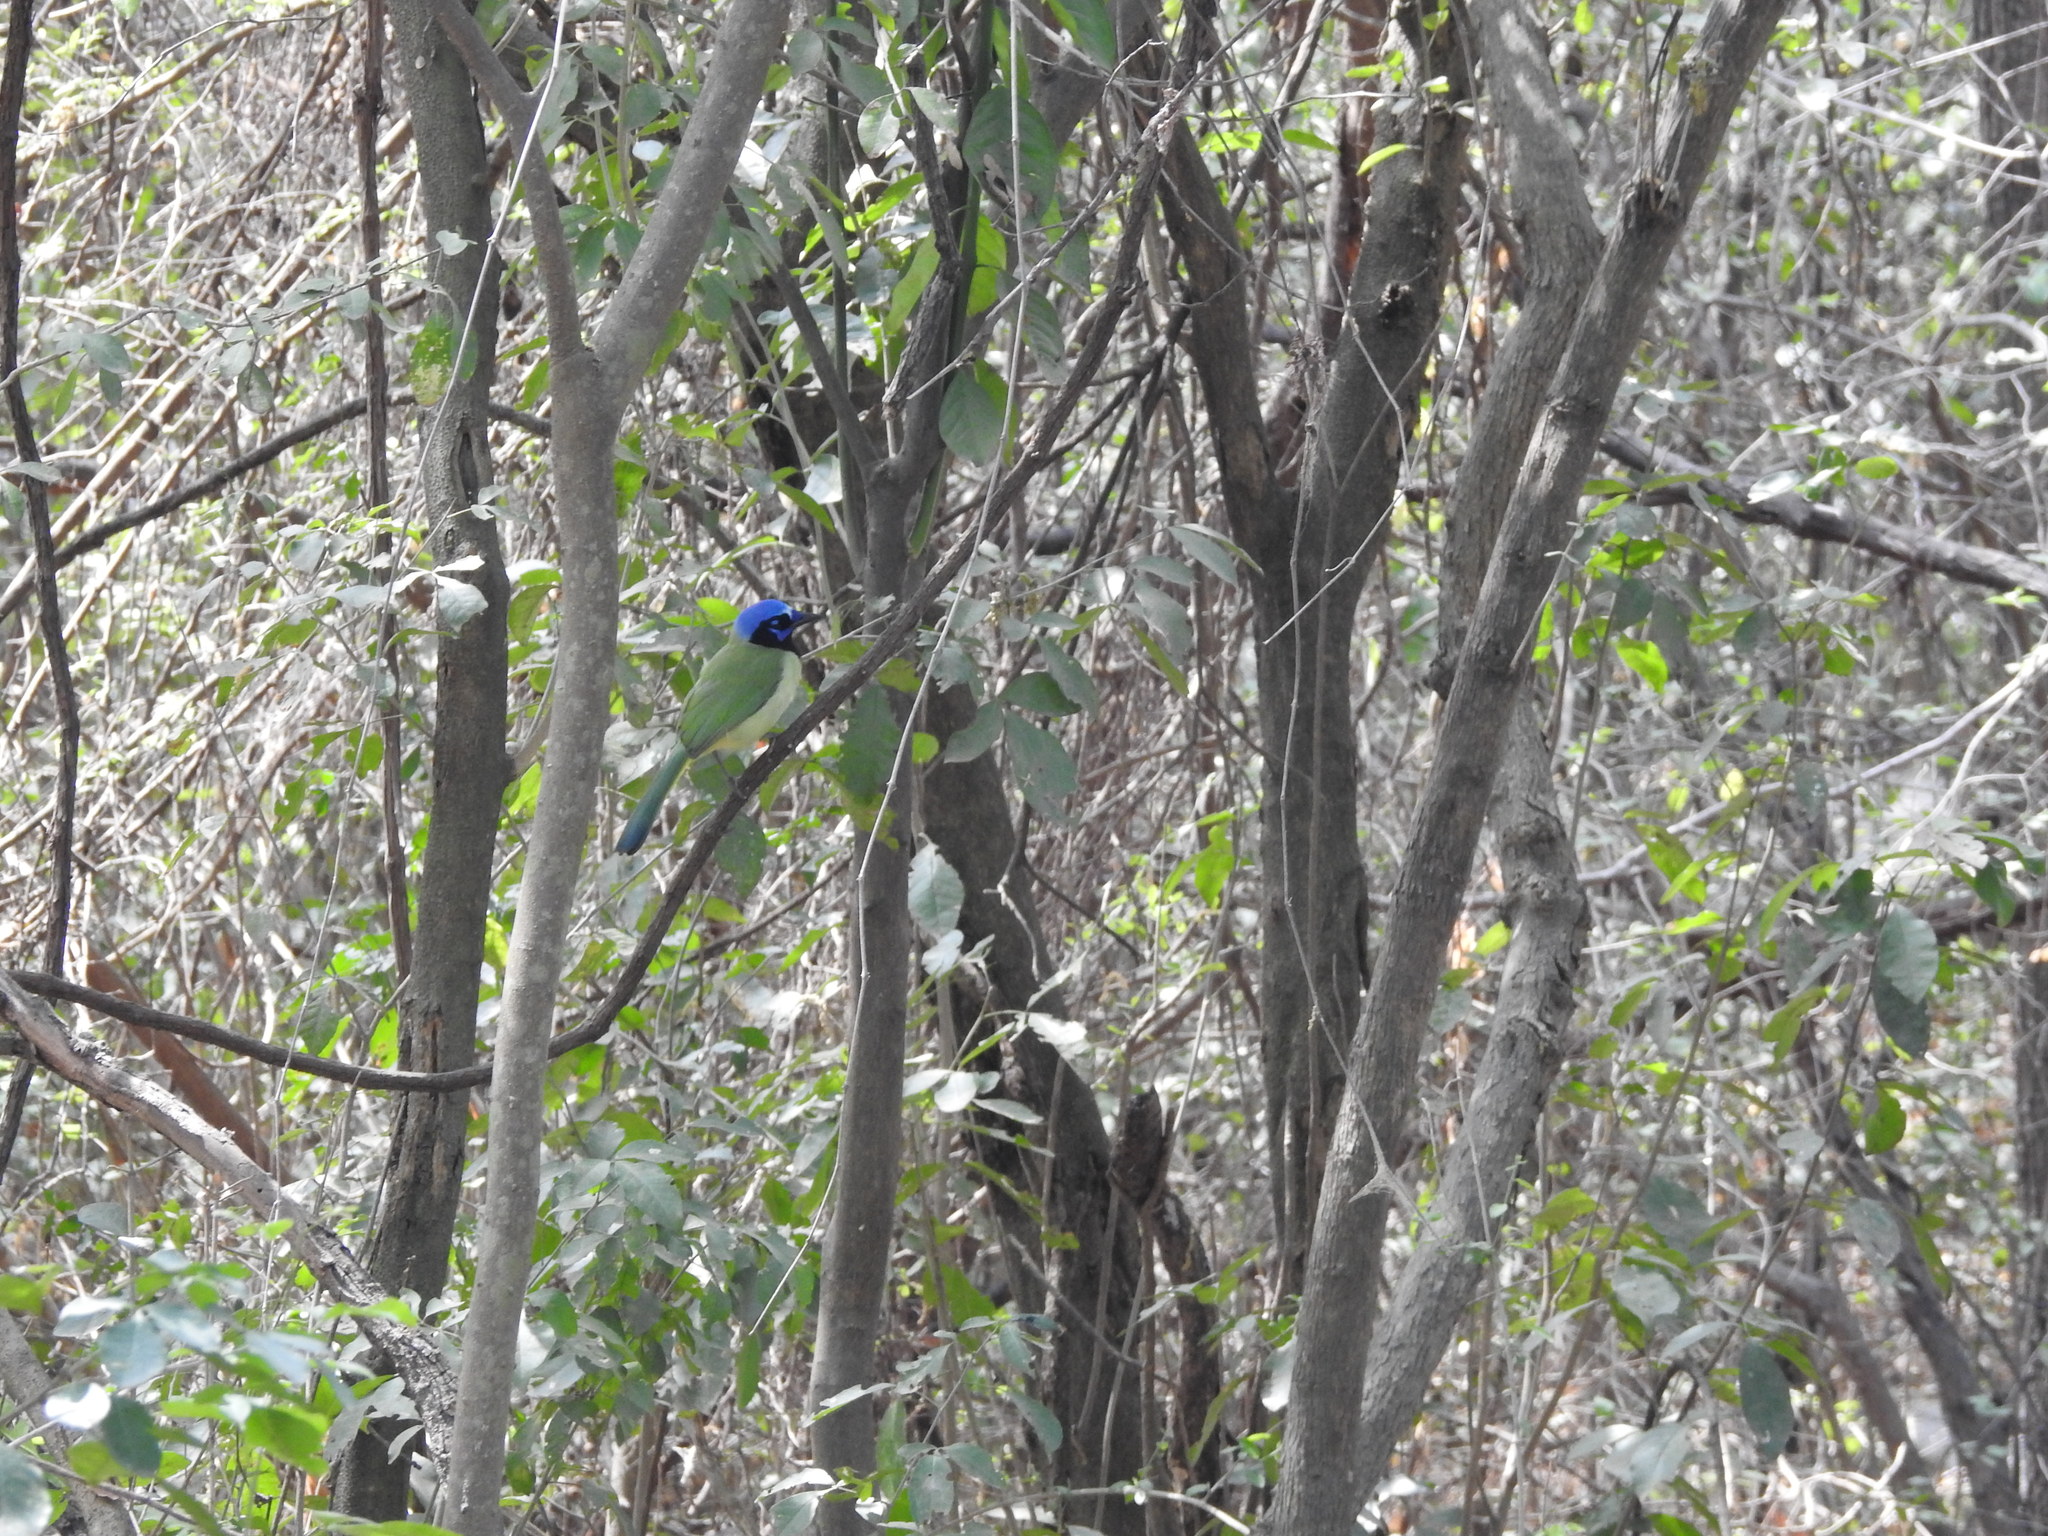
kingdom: Animalia
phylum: Chordata
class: Aves
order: Passeriformes
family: Corvidae
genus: Cyanocorax
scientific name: Cyanocorax yncas
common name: Green jay
